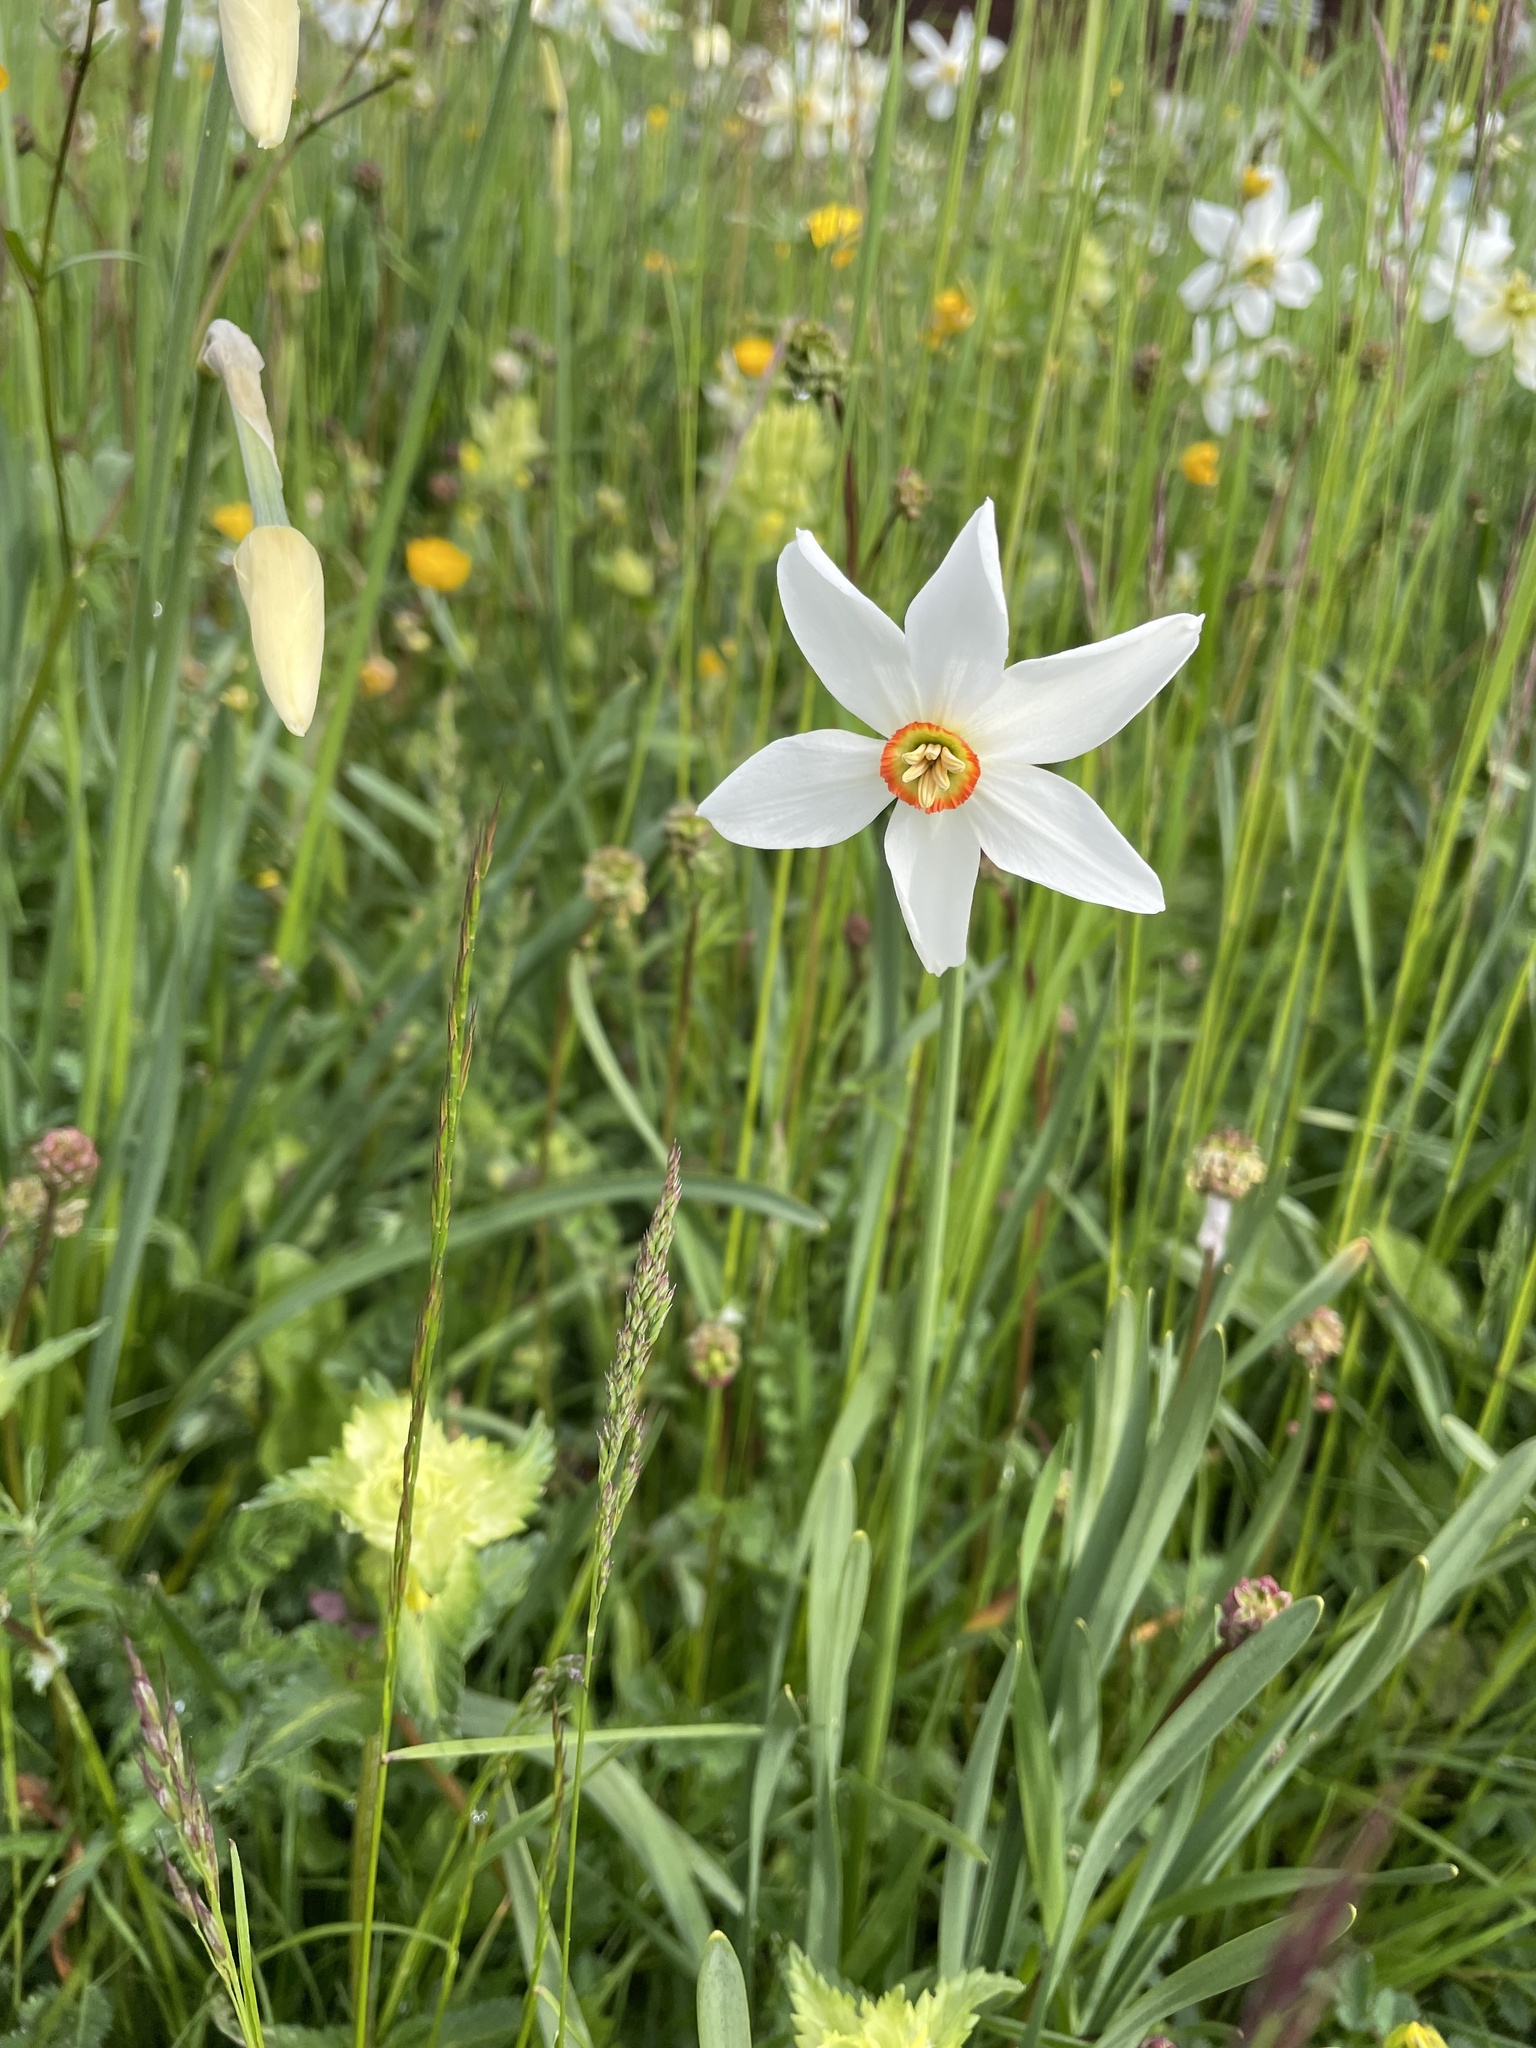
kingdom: Plantae
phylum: Tracheophyta
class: Liliopsida
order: Asparagales
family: Amaryllidaceae
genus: Narcissus
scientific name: Narcissus poeticus
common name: Pheasant's-eye daffodil
